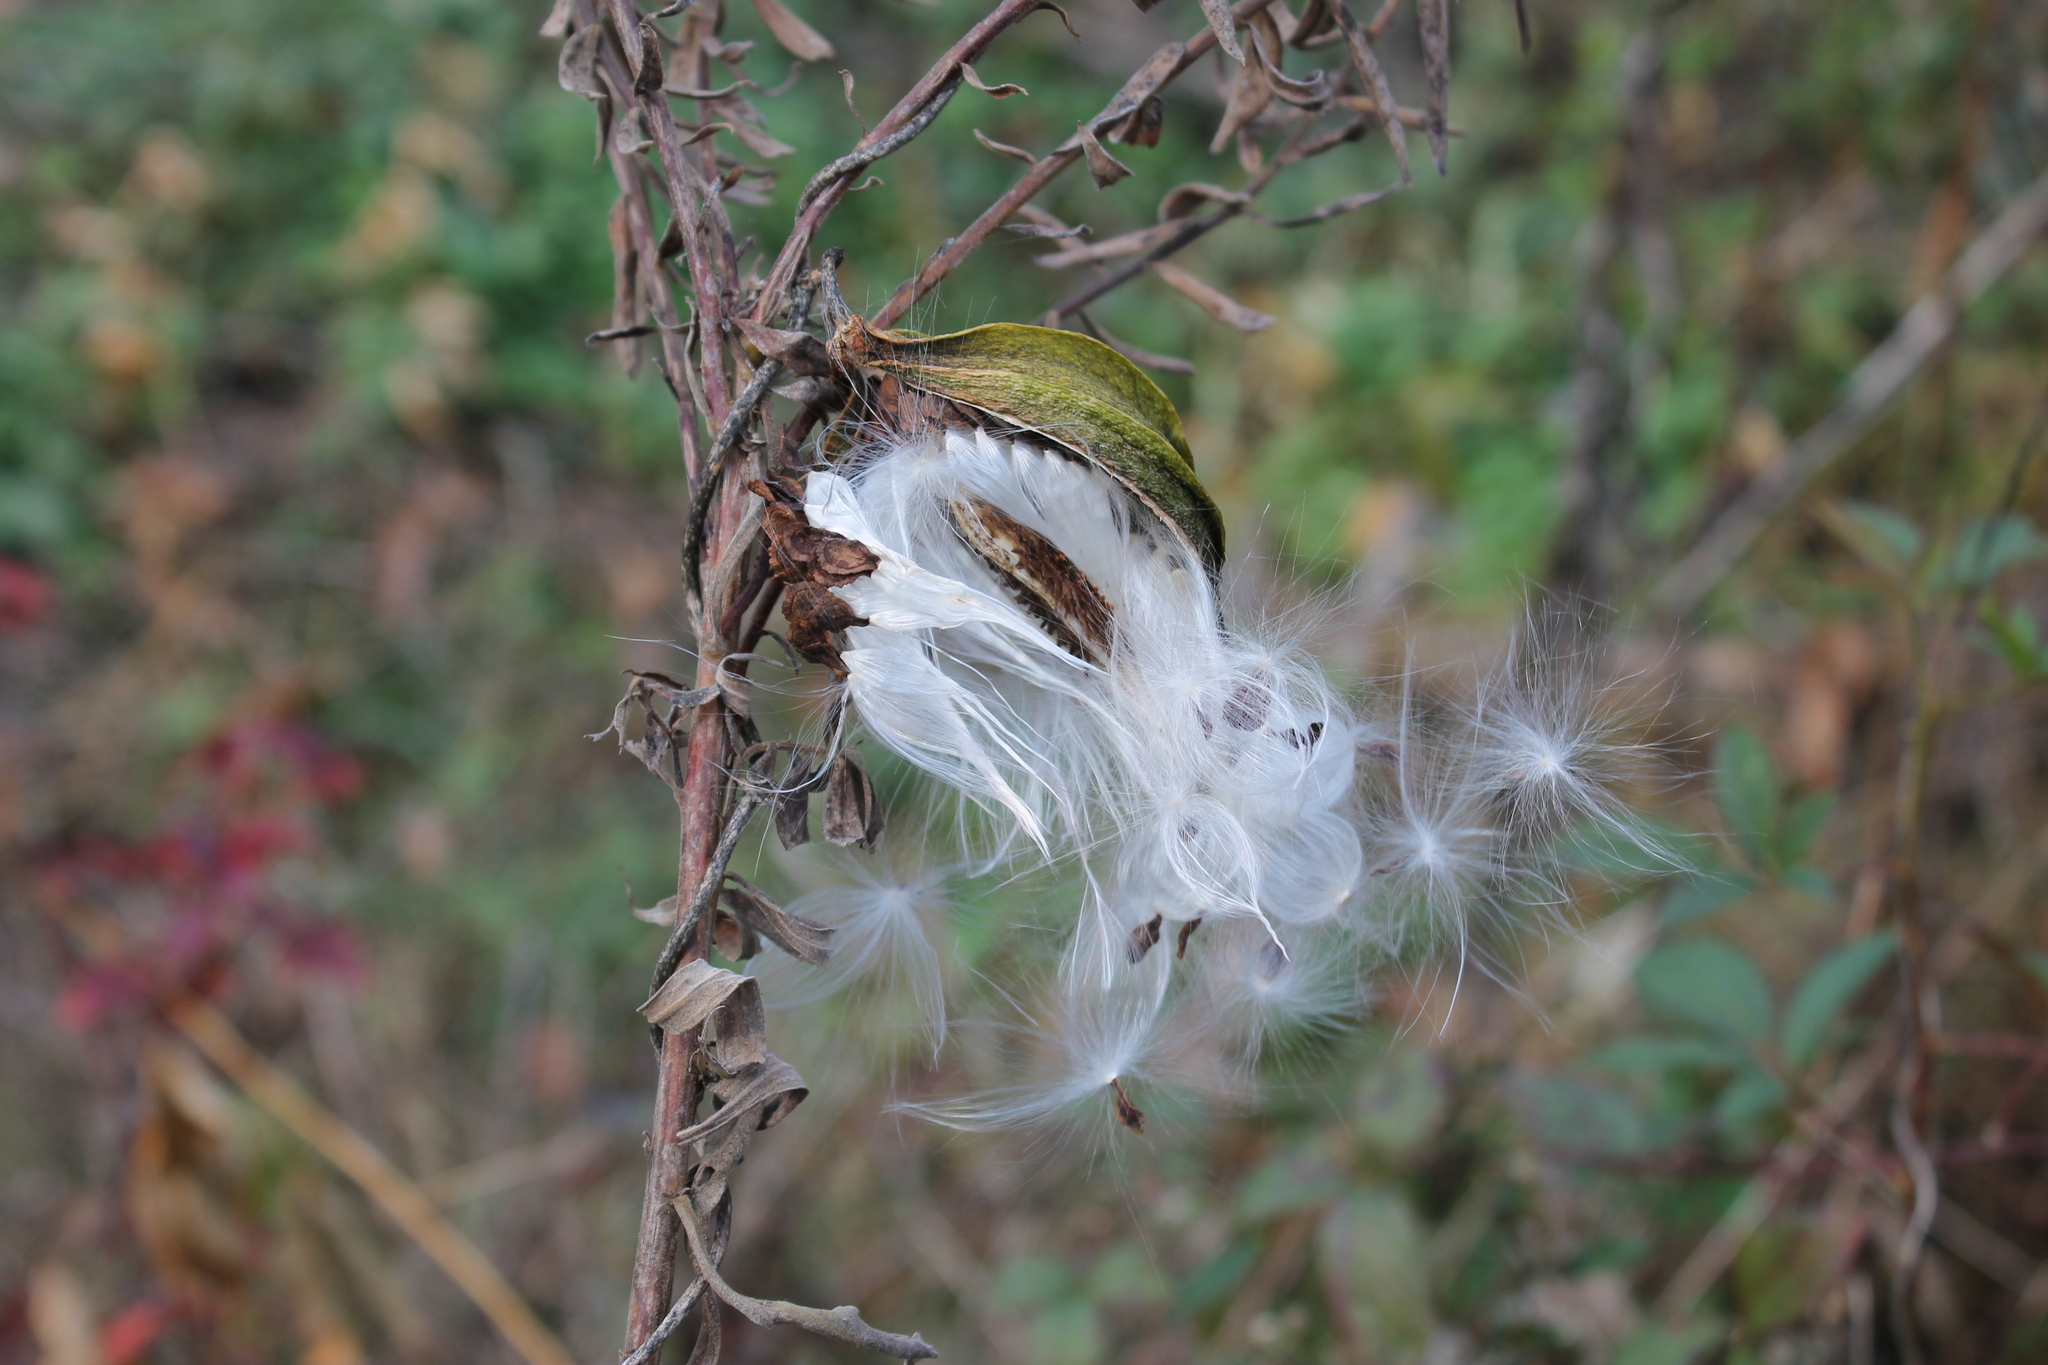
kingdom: Plantae
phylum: Tracheophyta
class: Magnoliopsida
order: Gentianales
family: Apocynaceae
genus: Gonolobus
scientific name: Gonolobus suberosus
